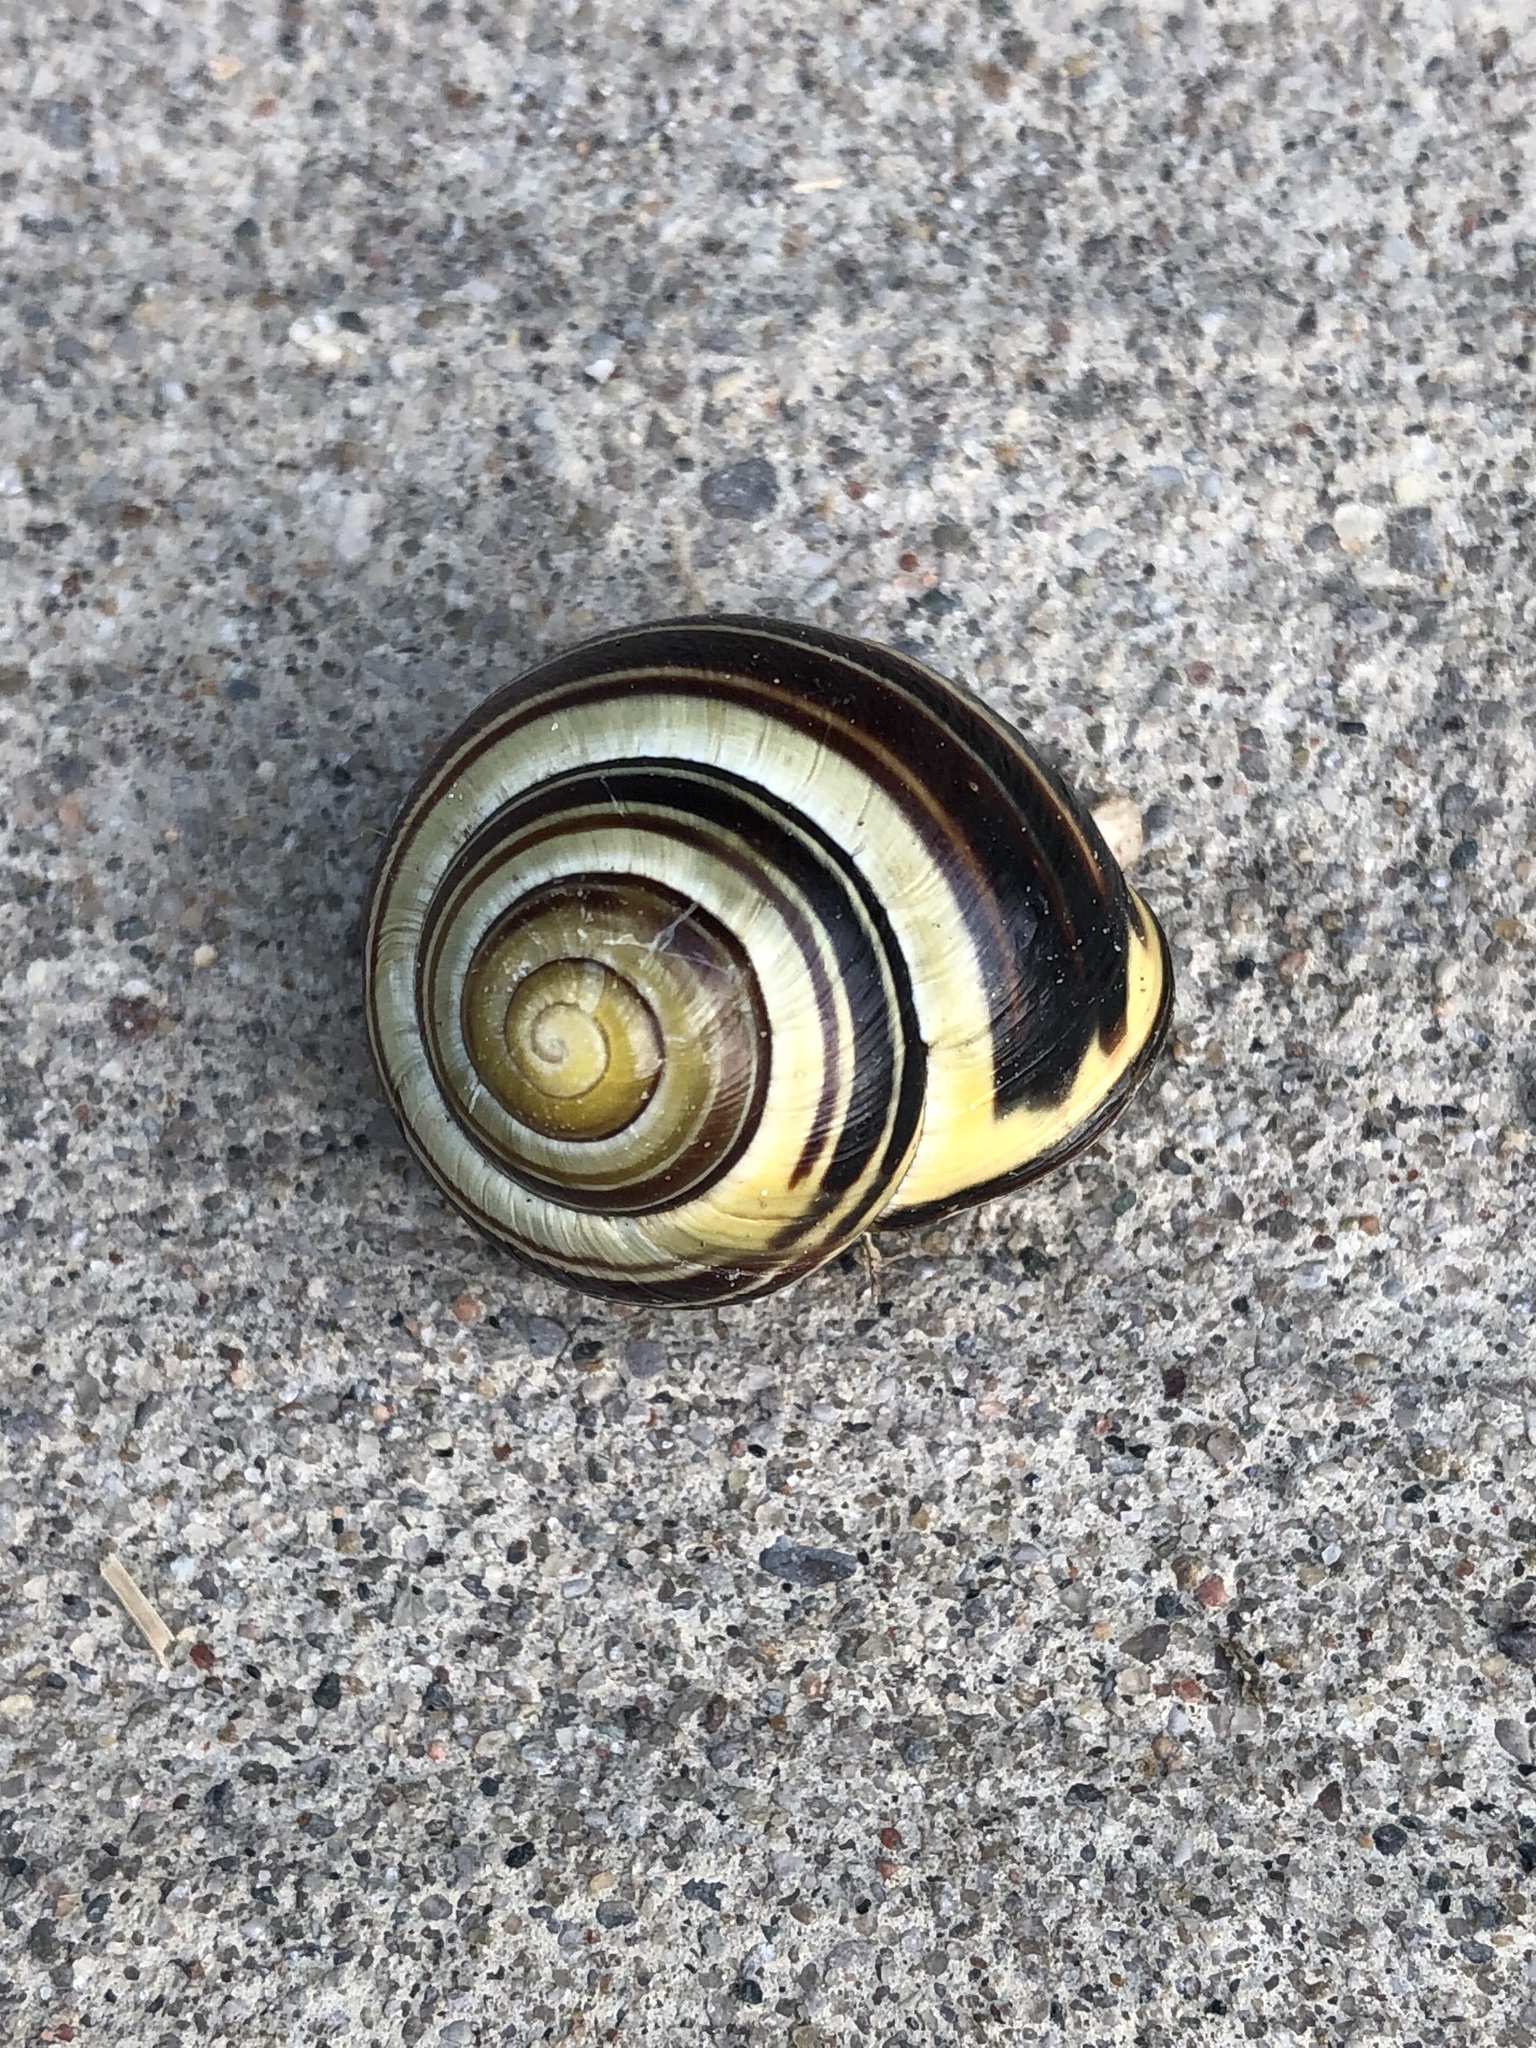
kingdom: Animalia
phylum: Mollusca
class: Gastropoda
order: Stylommatophora
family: Helicidae
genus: Cepaea
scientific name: Cepaea nemoralis
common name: Grovesnail
